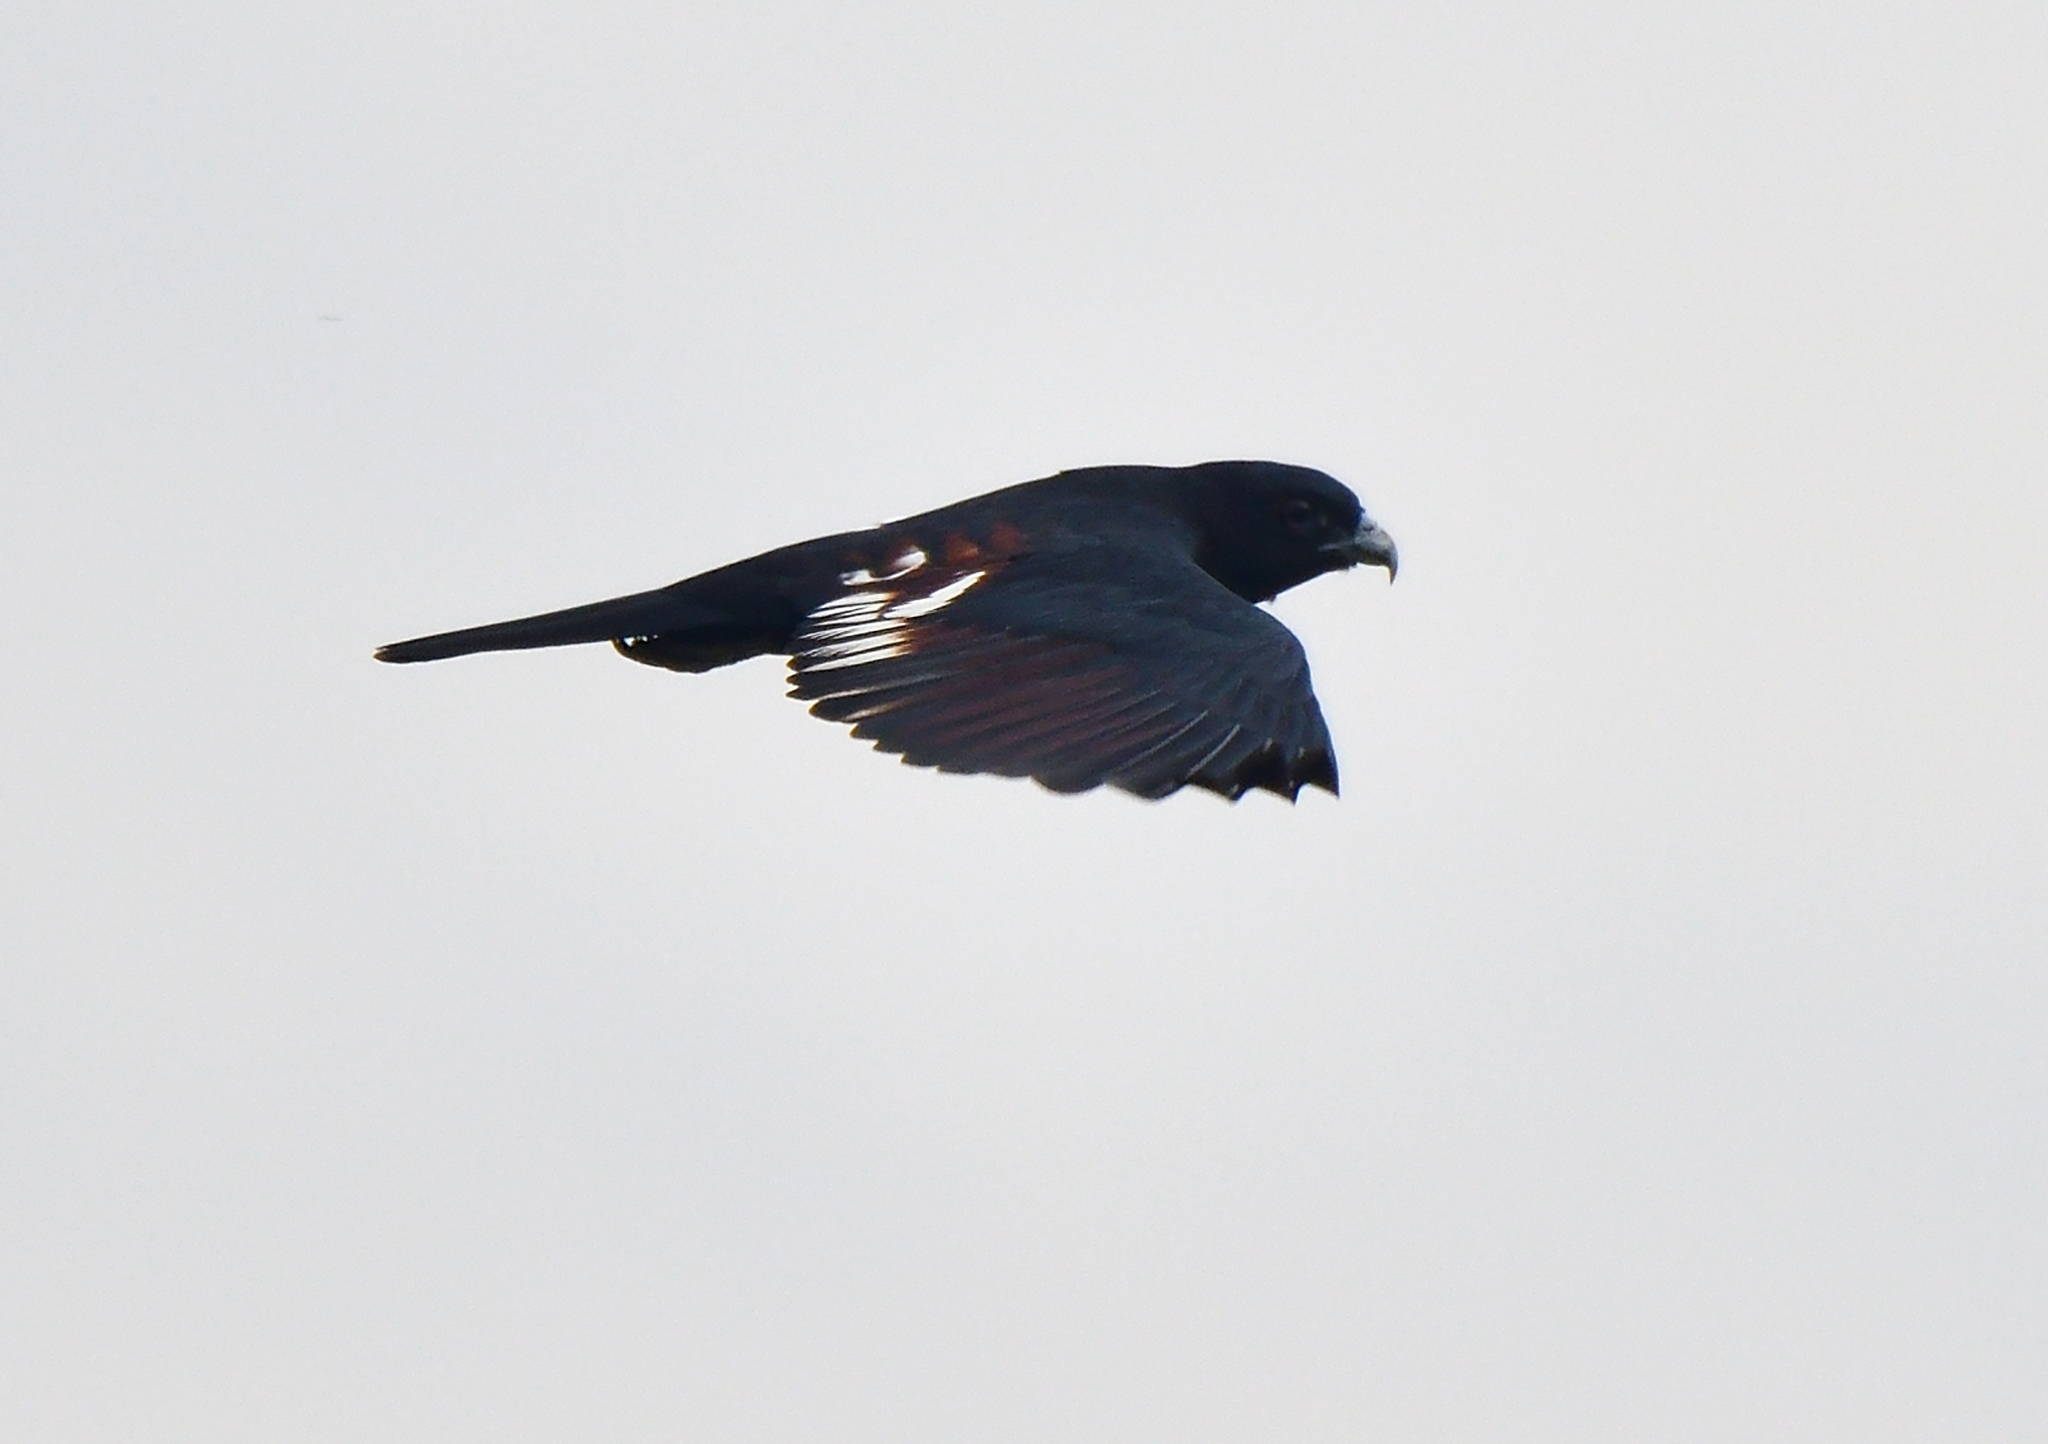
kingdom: Animalia
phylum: Chordata
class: Aves
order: Accipitriformes
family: Accipitridae
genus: Aviceda
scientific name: Aviceda leuphotes
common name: Black baza
